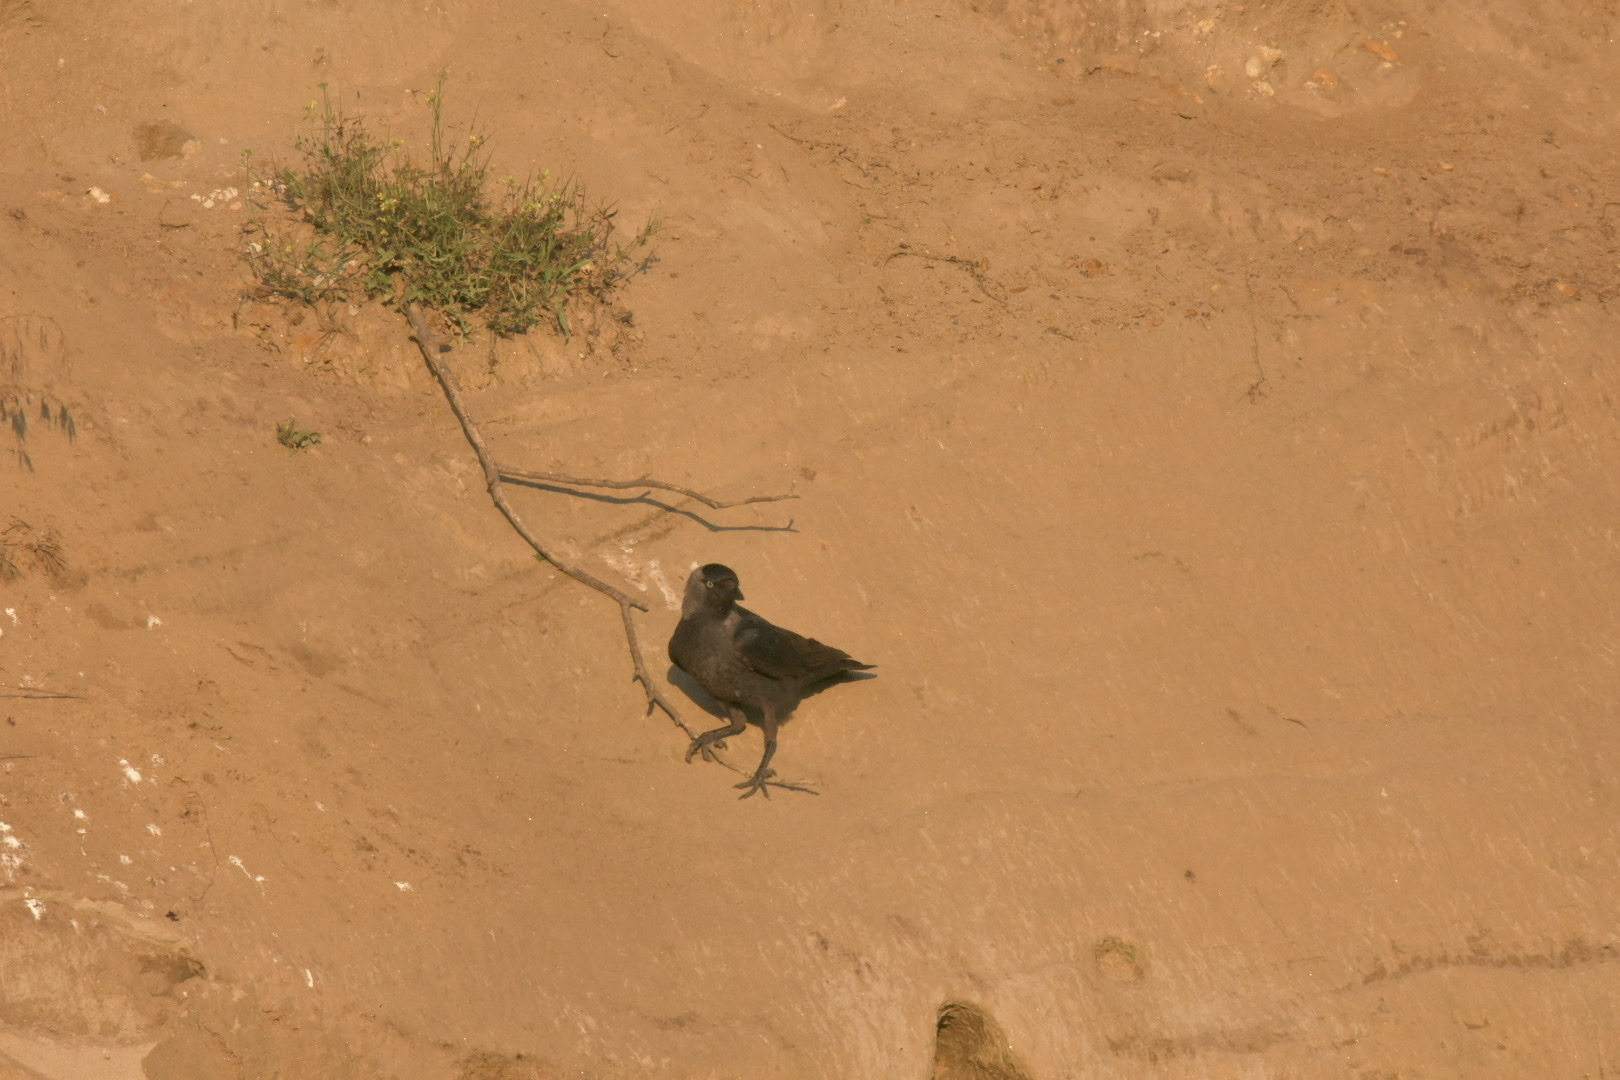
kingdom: Animalia
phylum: Chordata
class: Aves
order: Passeriformes
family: Corvidae
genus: Coloeus
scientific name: Coloeus monedula
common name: Western jackdaw
